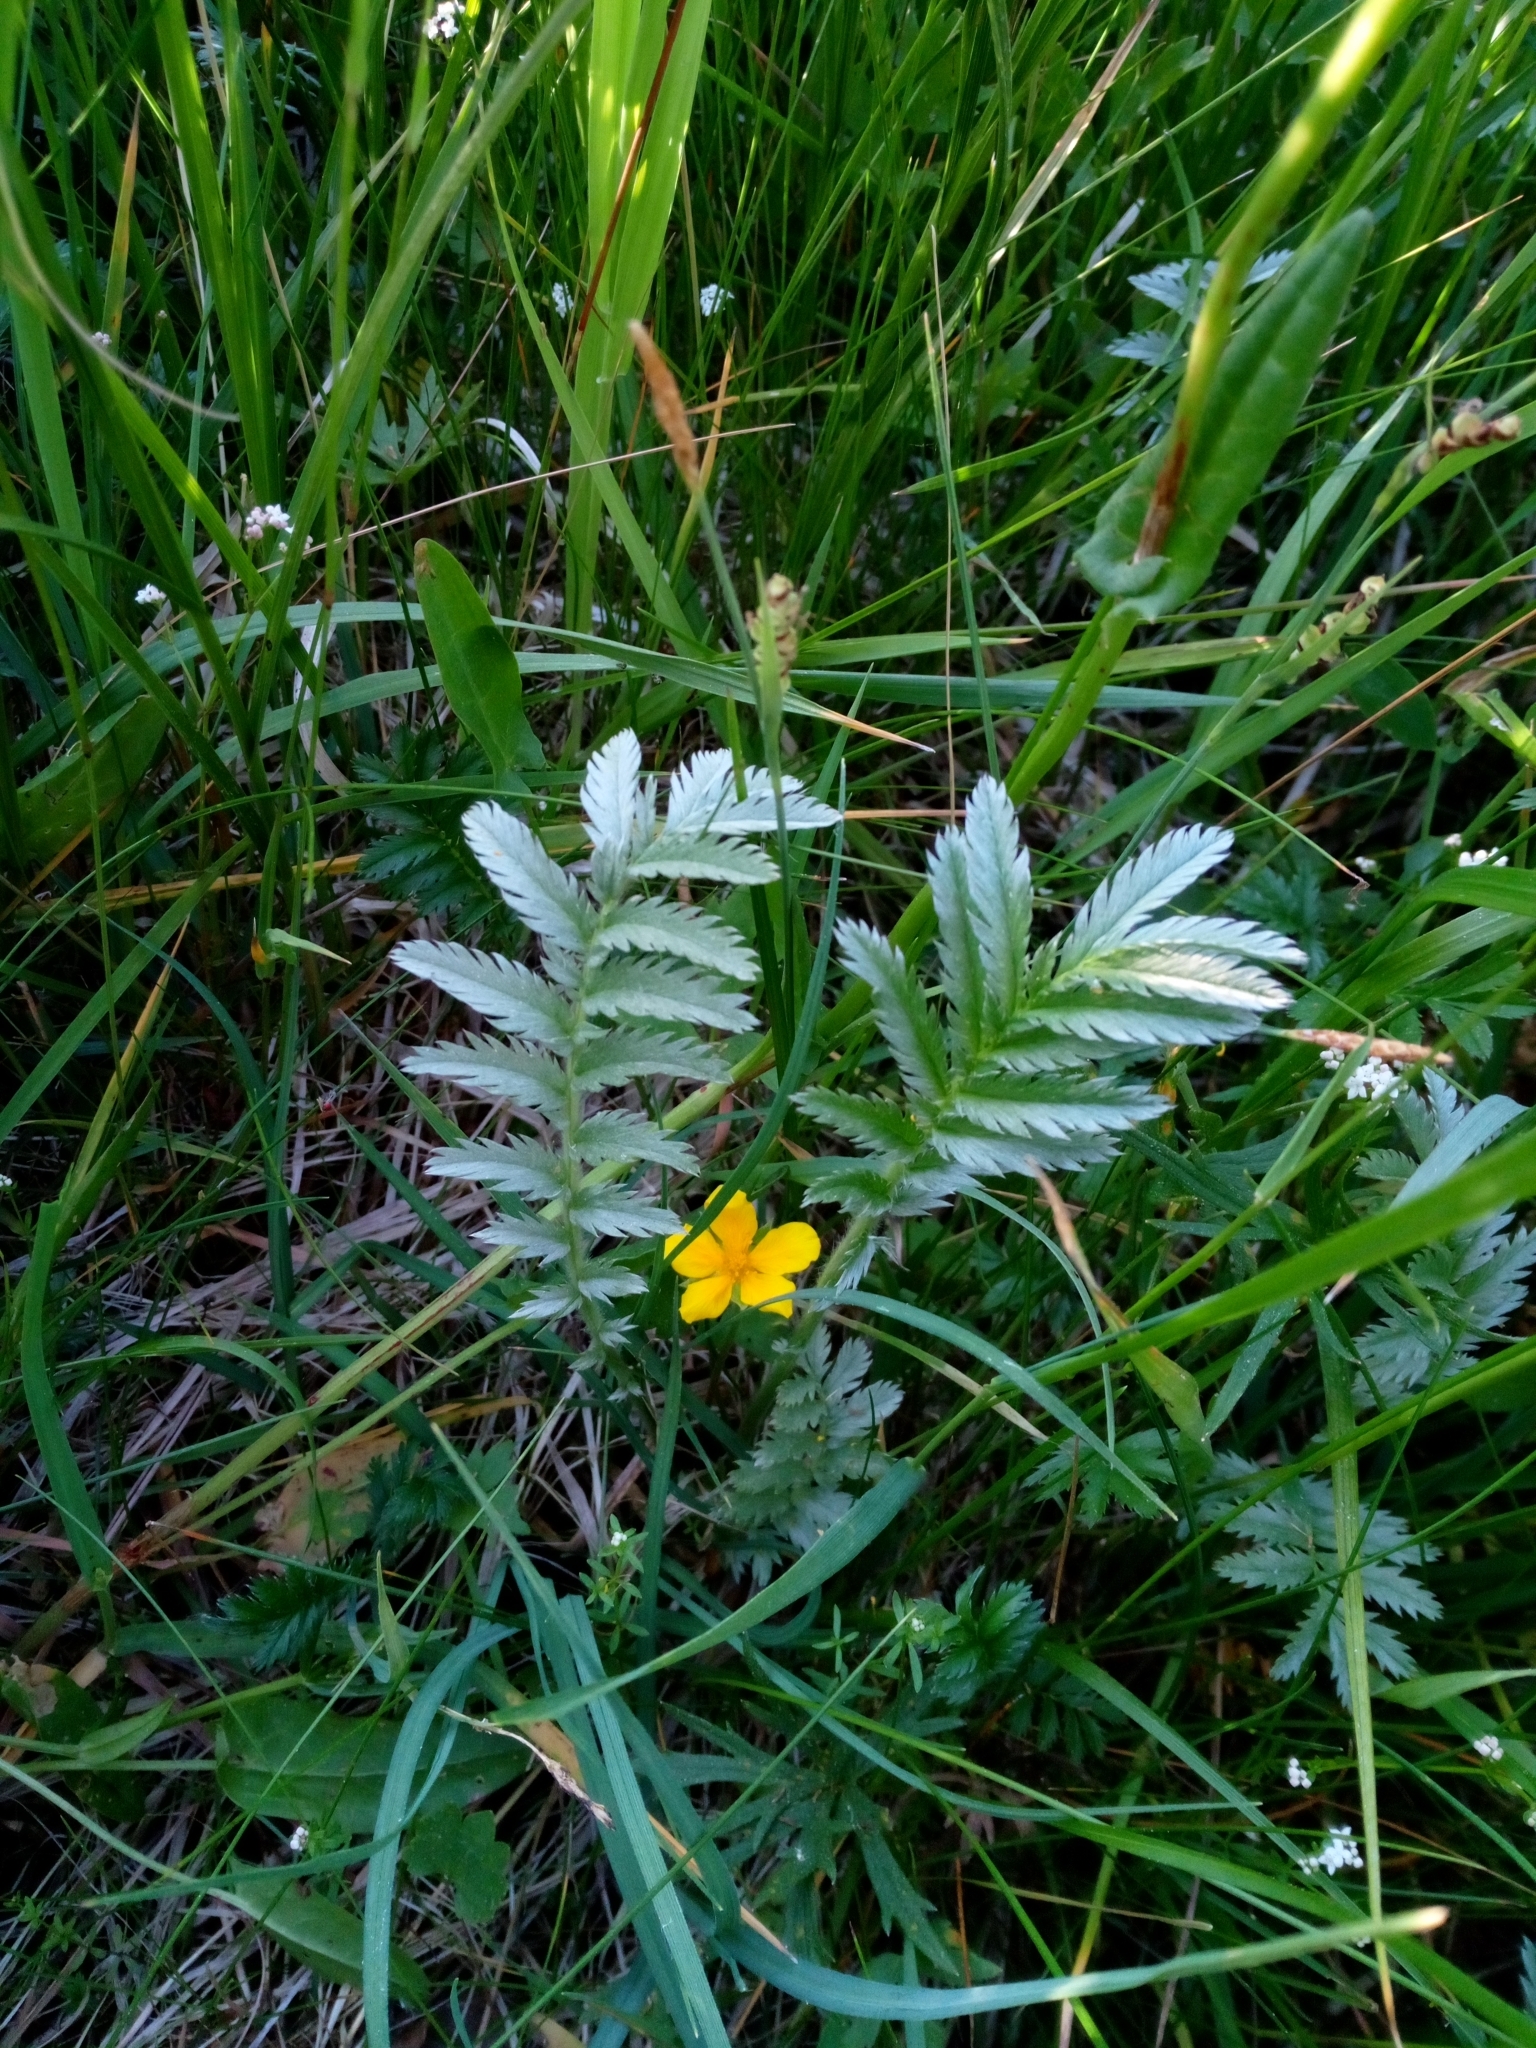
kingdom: Plantae
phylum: Tracheophyta
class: Magnoliopsida
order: Rosales
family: Rosaceae
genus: Argentina
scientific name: Argentina anserina
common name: Common silverweed
